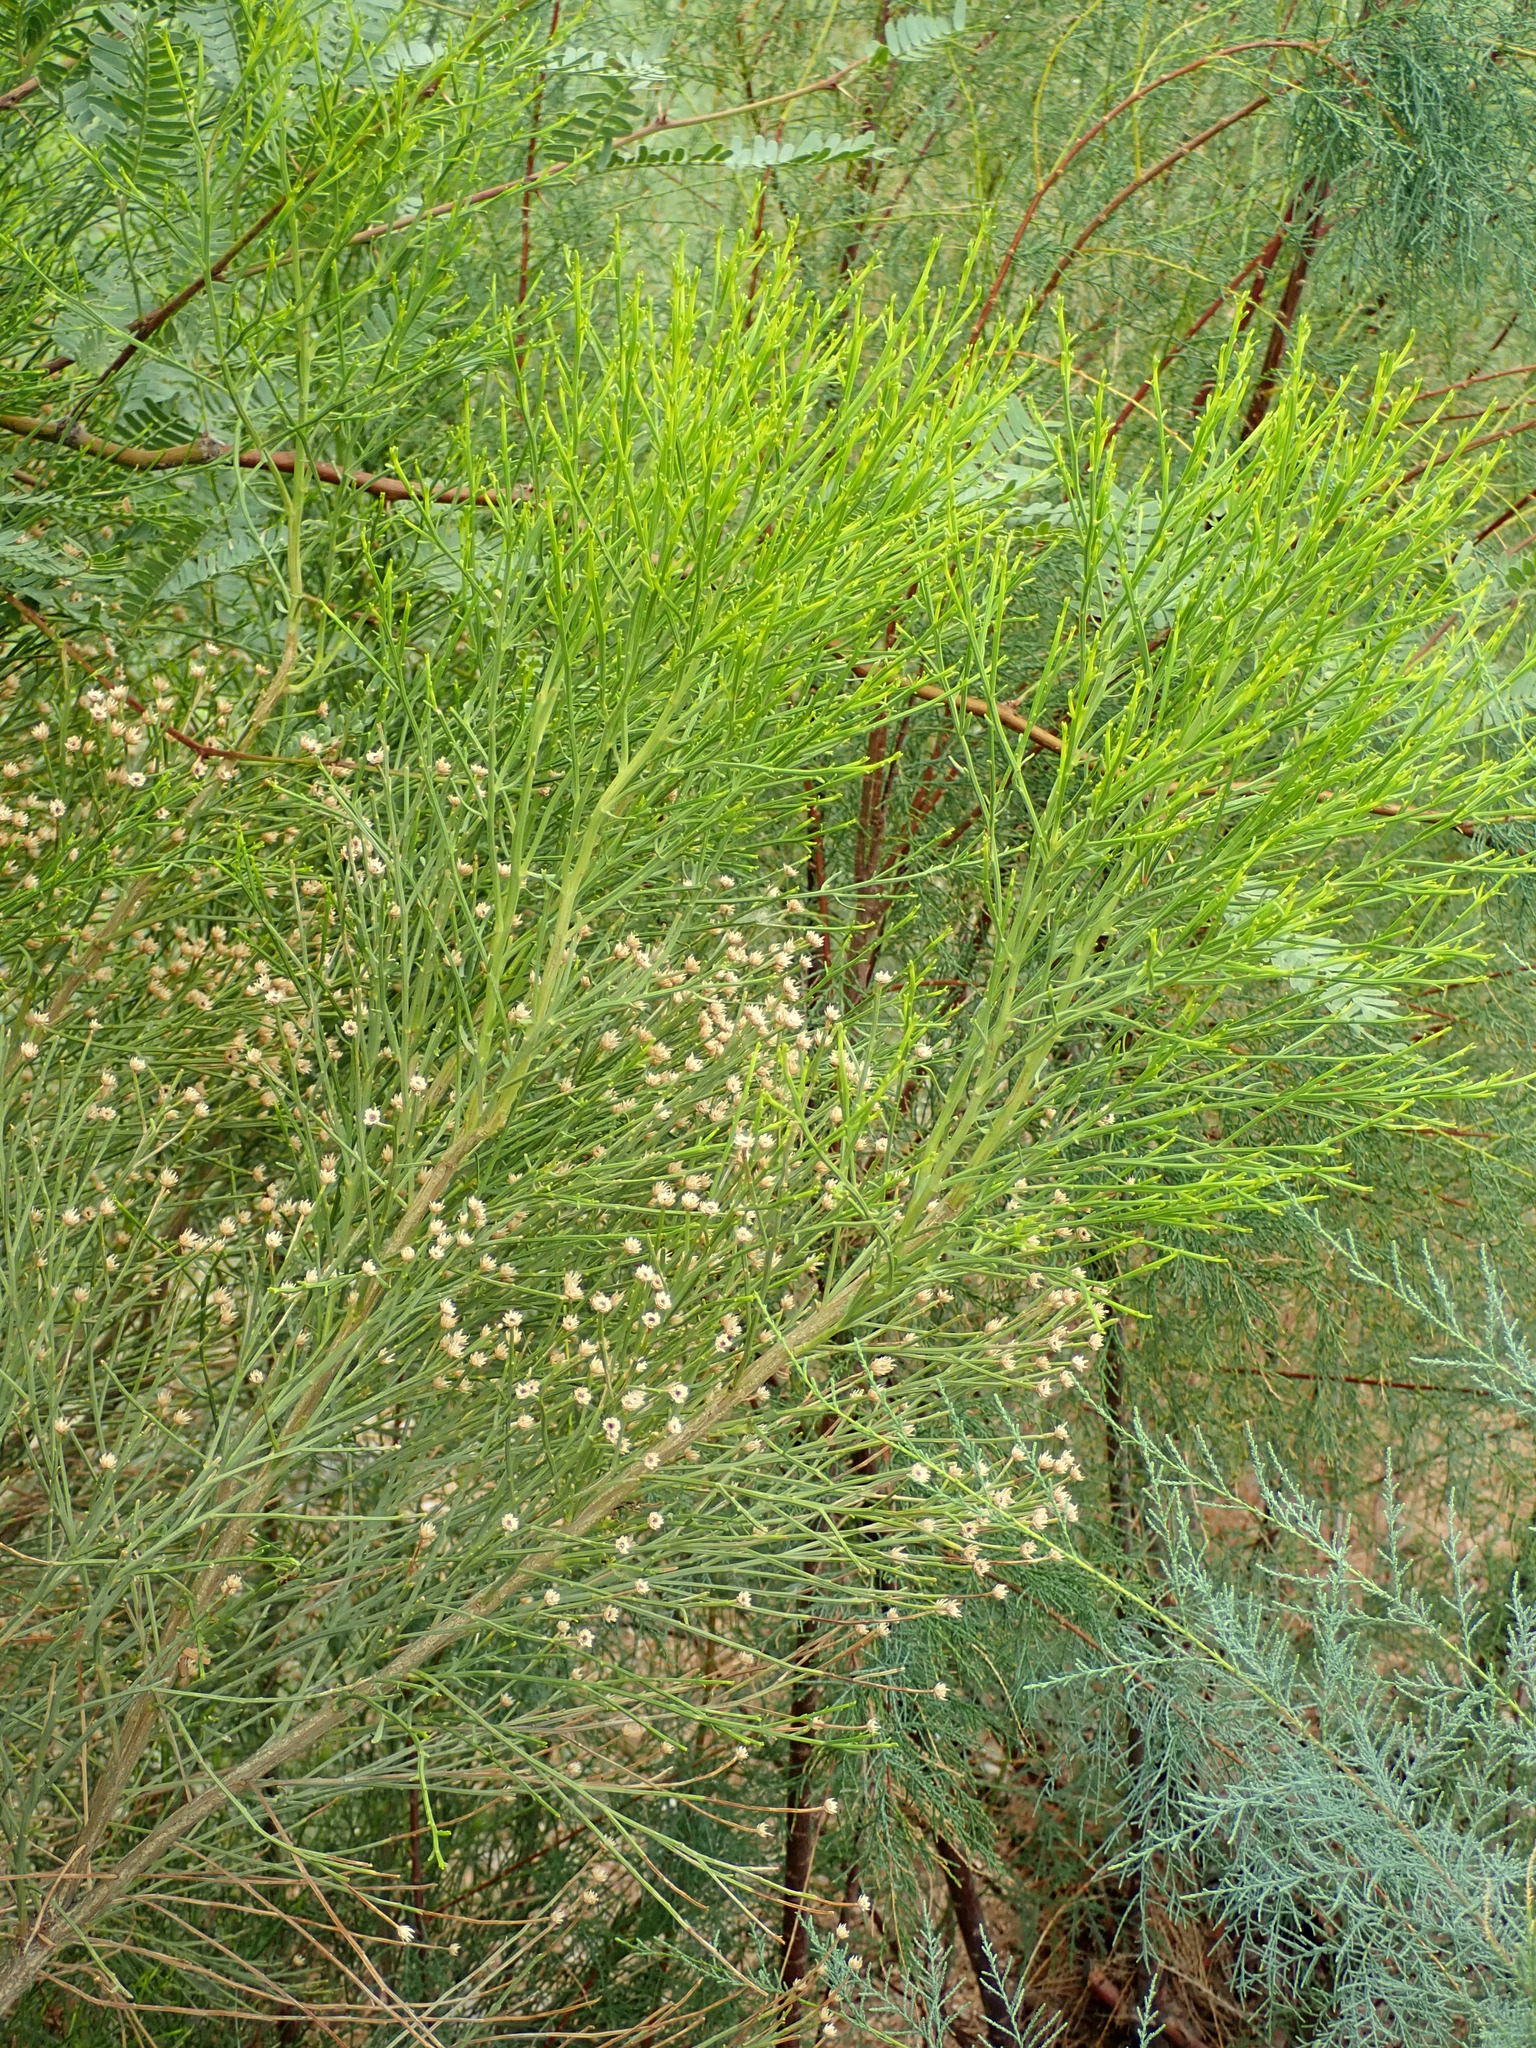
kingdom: Plantae
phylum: Tracheophyta
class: Magnoliopsida
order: Asterales
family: Asteraceae
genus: Baccharis
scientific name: Baccharis sarothroides
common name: Desert-broom
